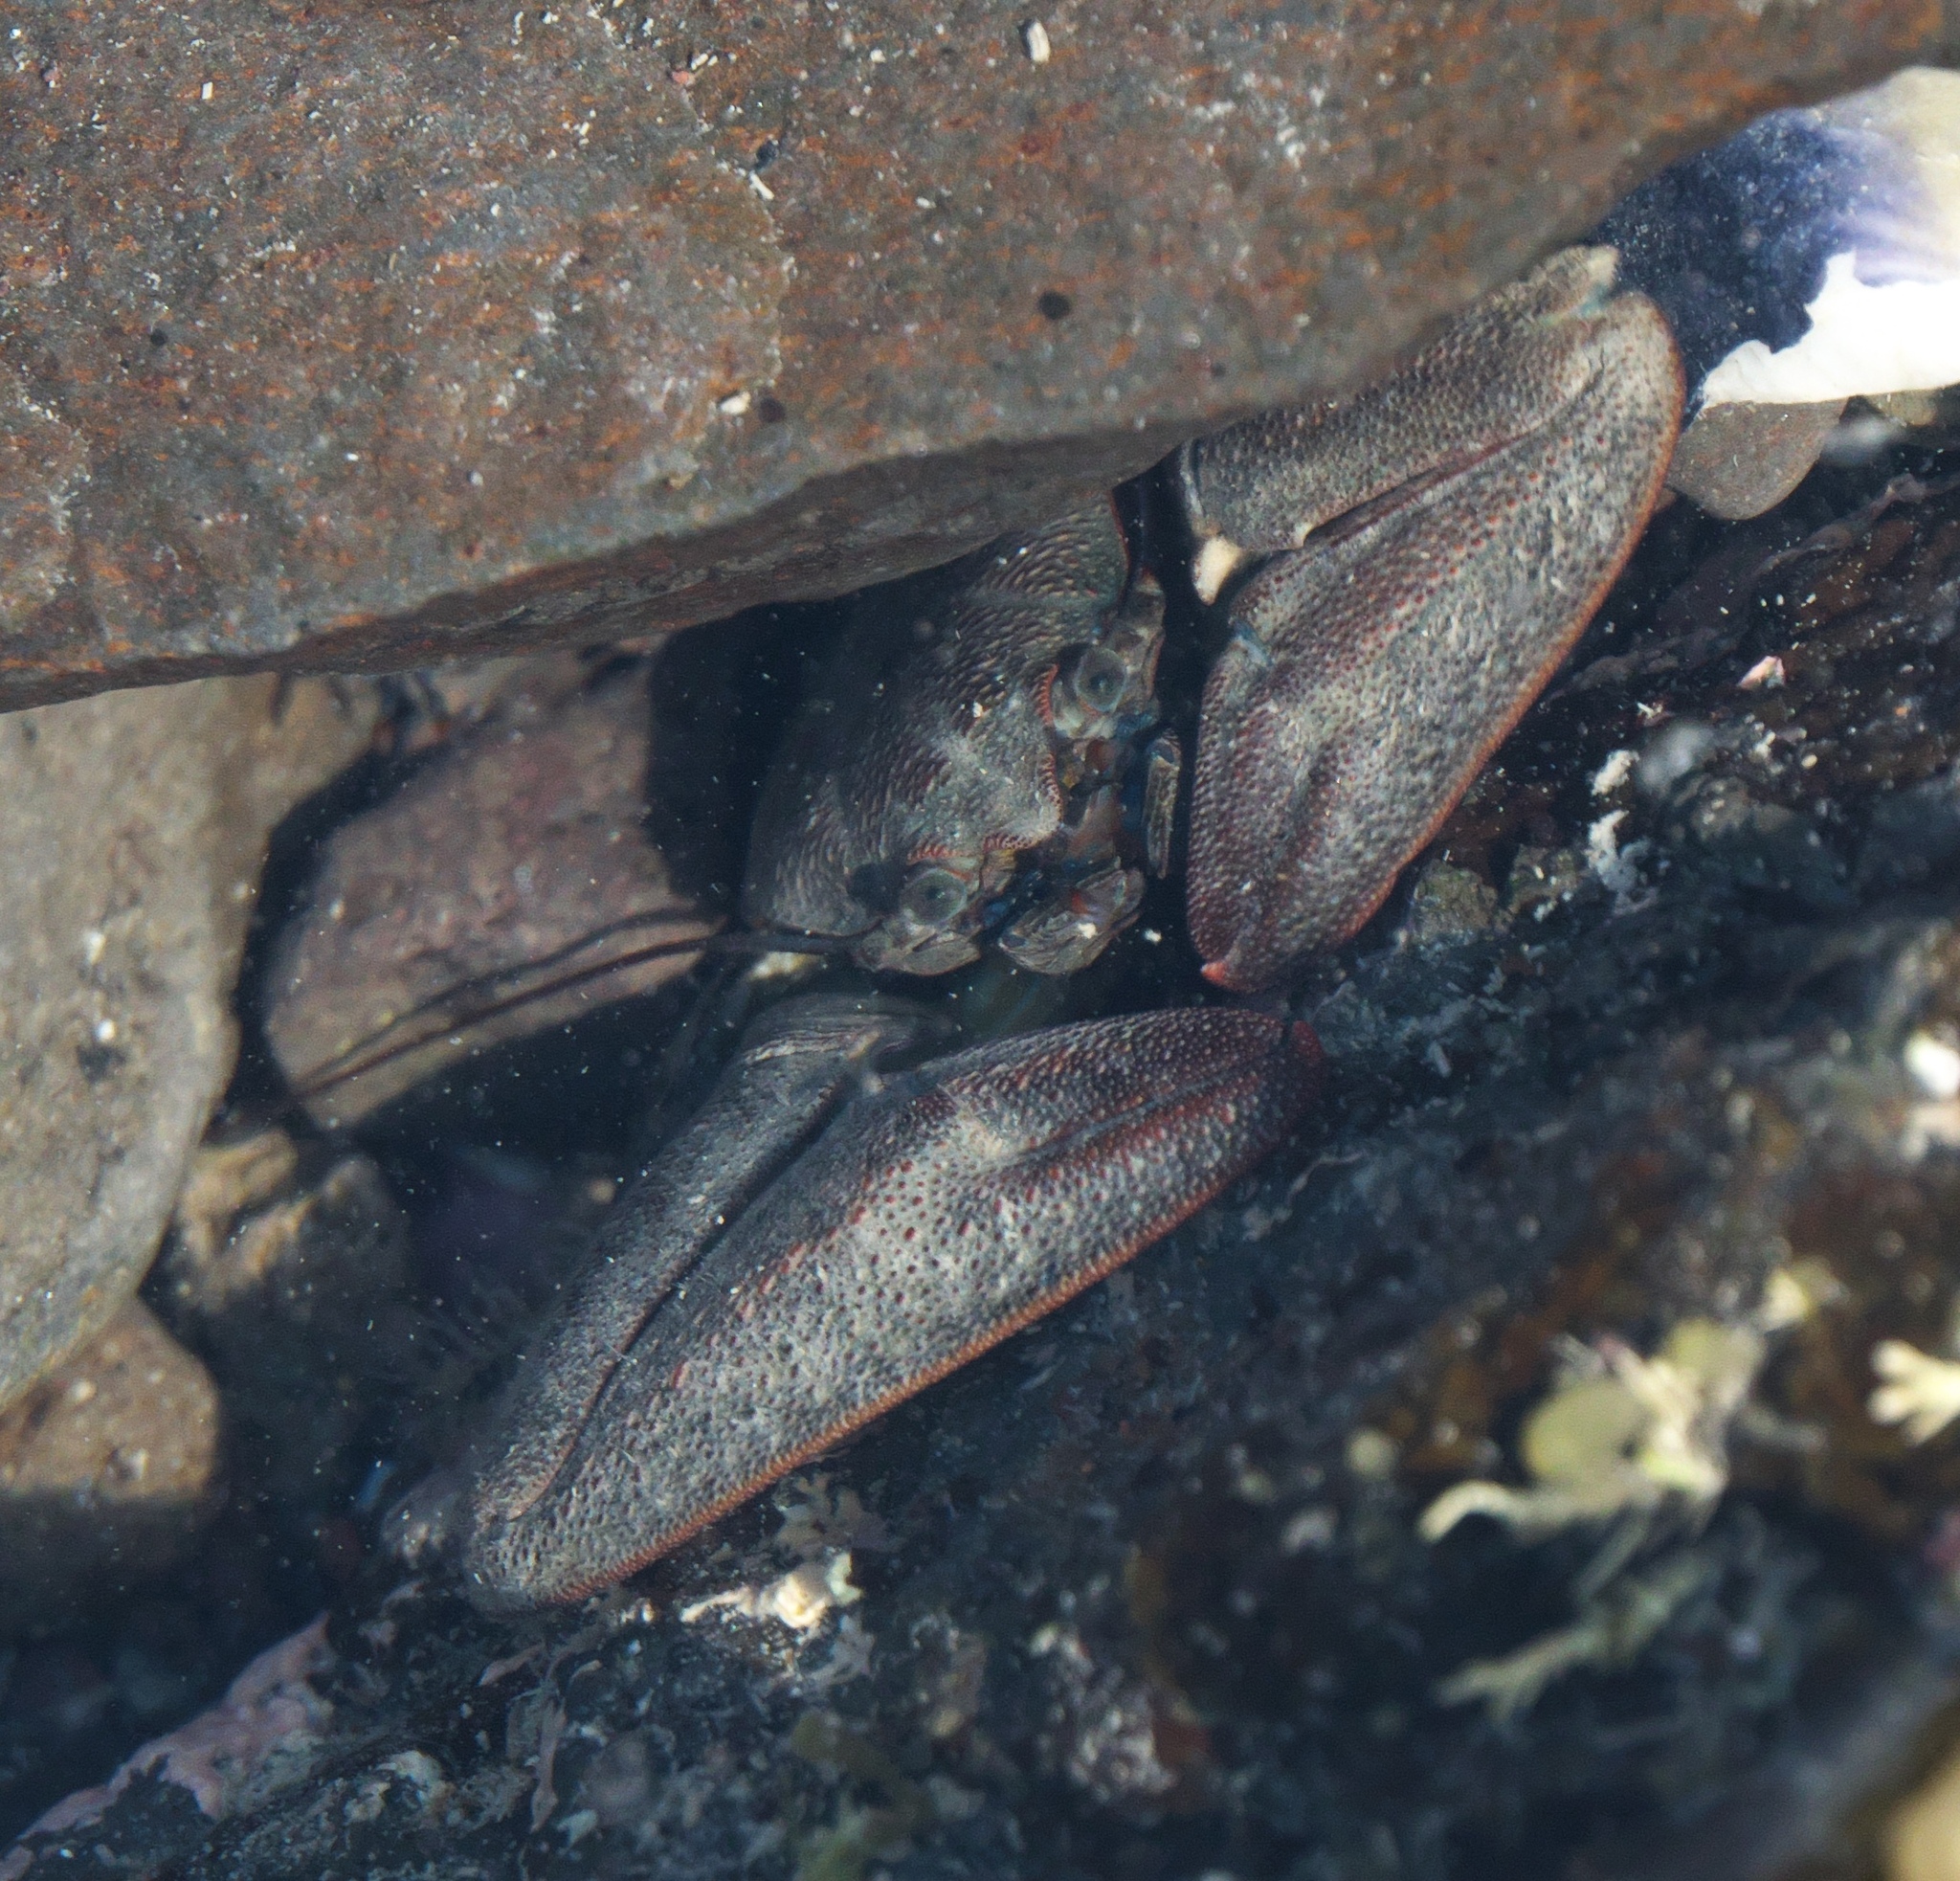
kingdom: Animalia
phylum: Arthropoda
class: Malacostraca
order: Decapoda
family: Porcellanidae
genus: Petrolisthes
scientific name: Petrolisthes elongatus
